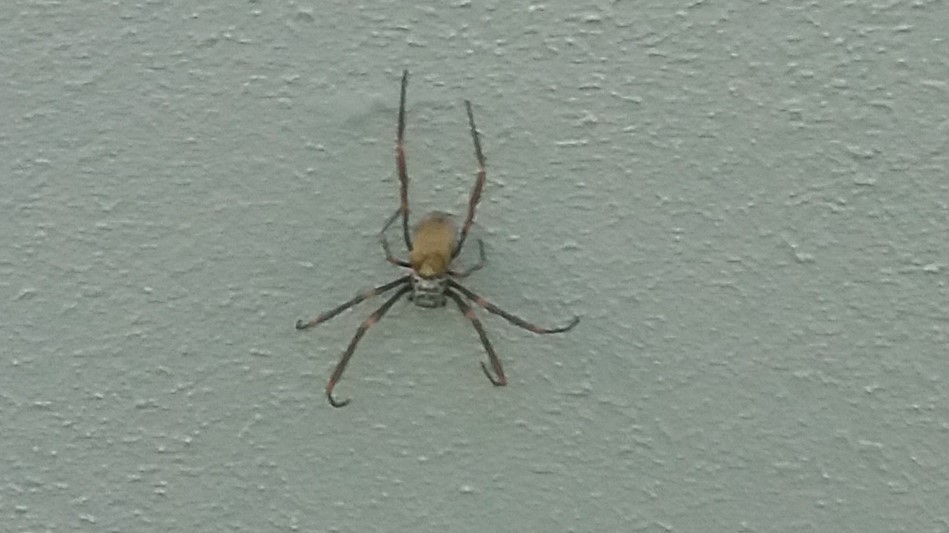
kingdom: Animalia
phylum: Arthropoda
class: Arachnida
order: Araneae
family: Araneidae
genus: Trichonephila
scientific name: Trichonephila plumipes
